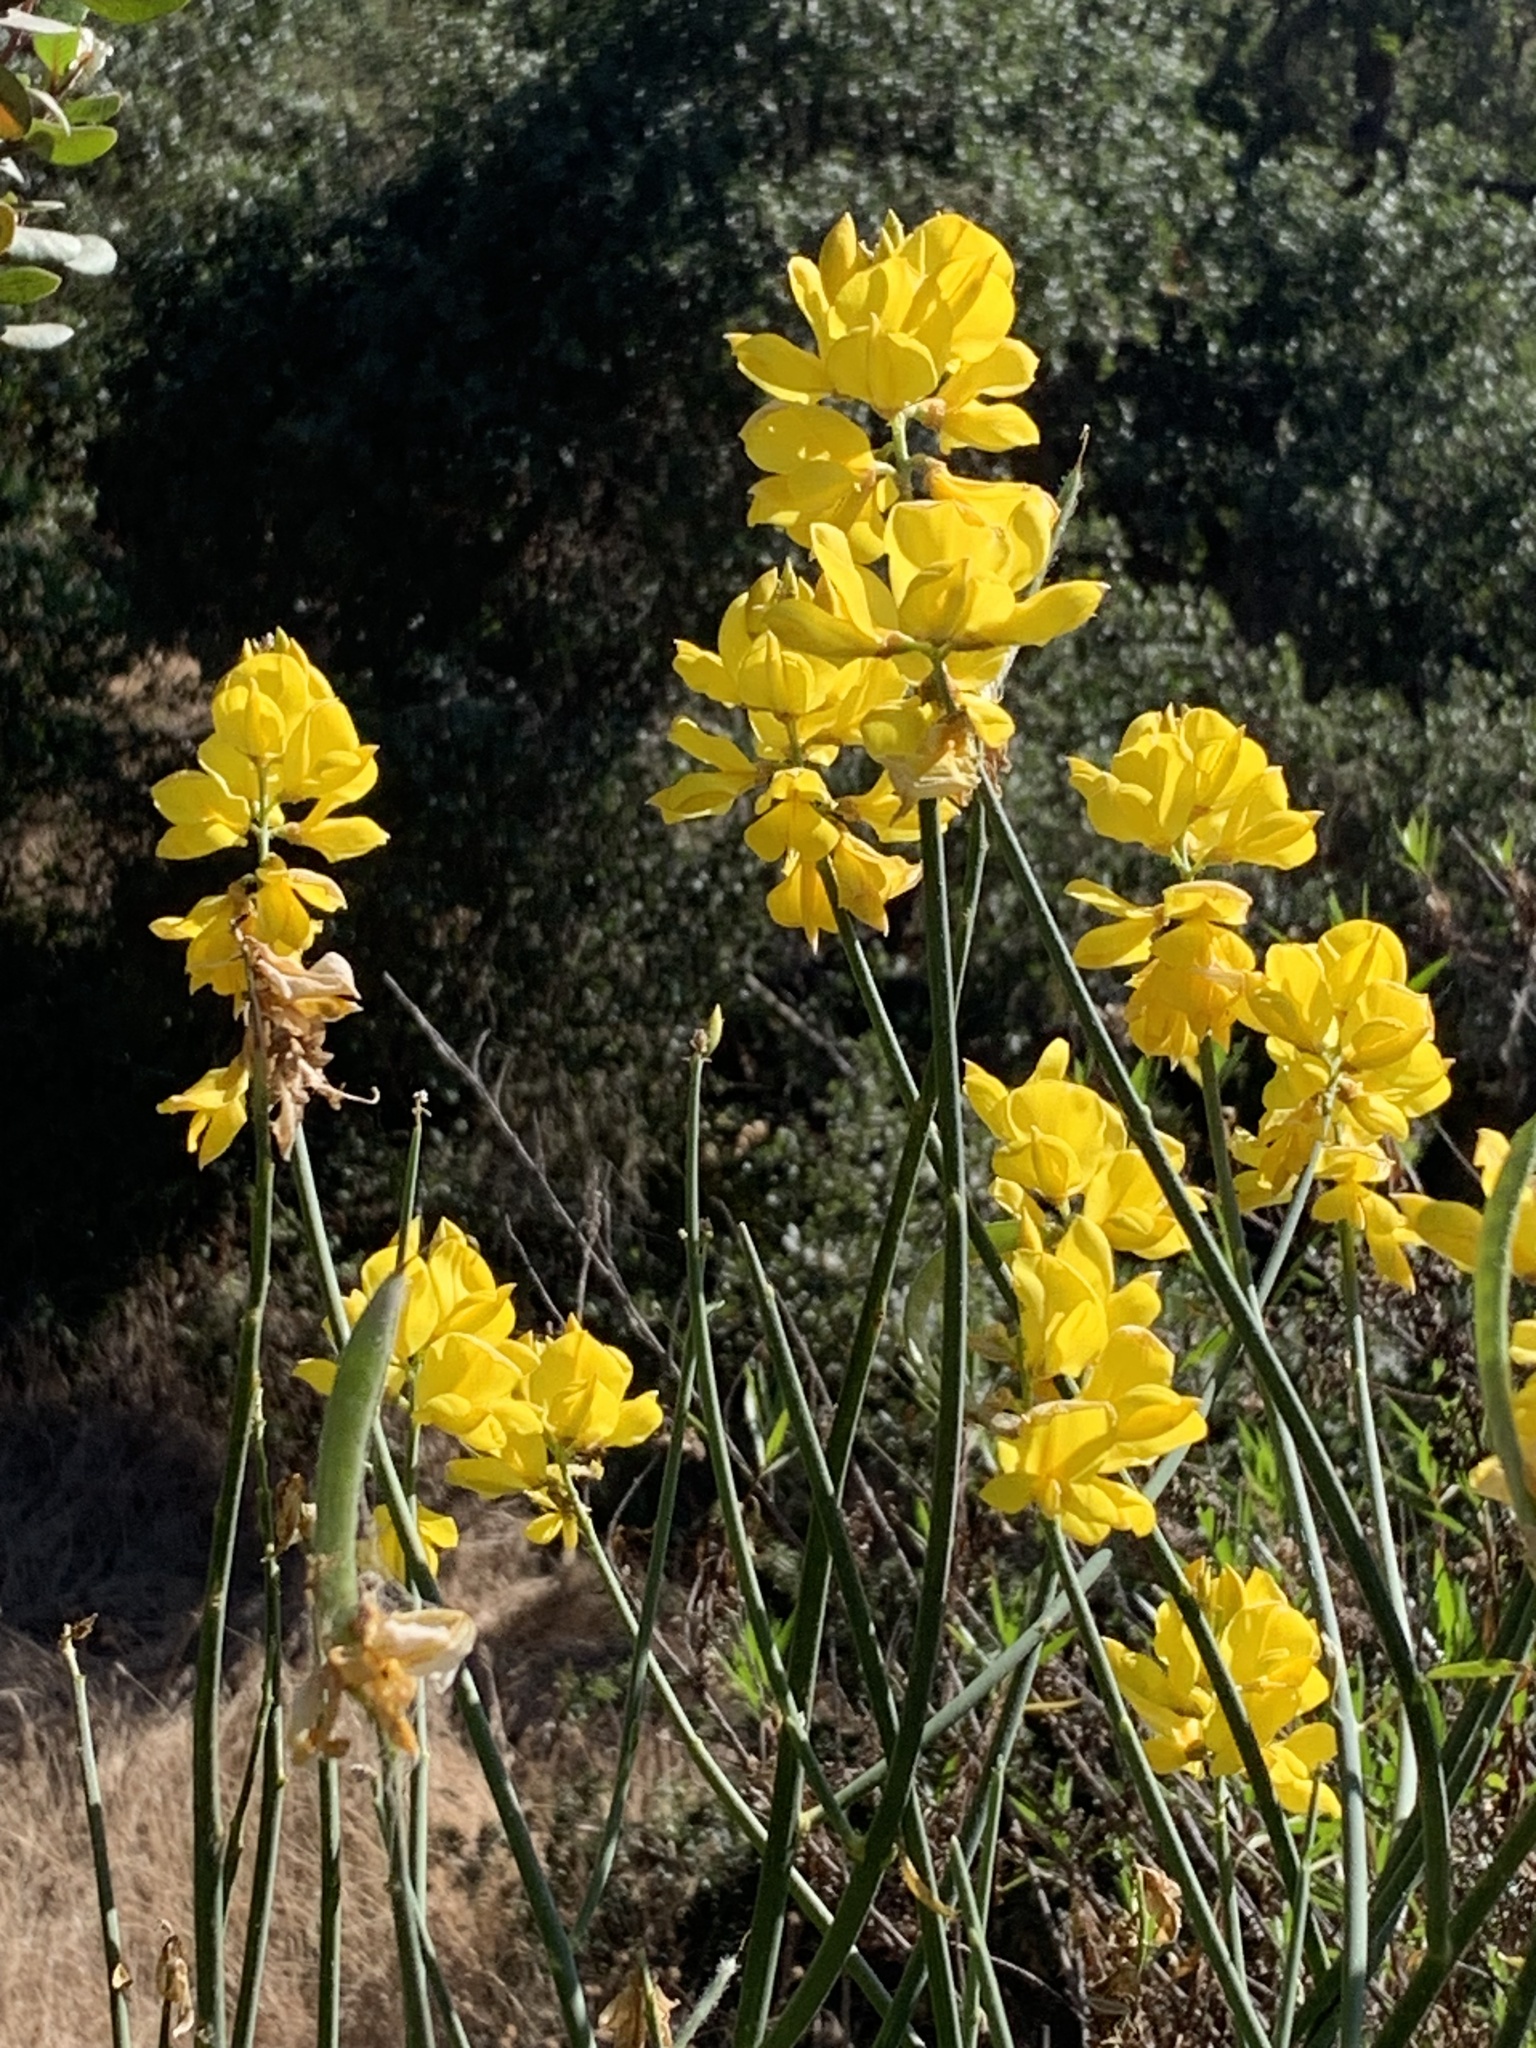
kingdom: Plantae
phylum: Tracheophyta
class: Magnoliopsida
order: Fabales
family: Fabaceae
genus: Spartium
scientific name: Spartium junceum
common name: Spanish broom
